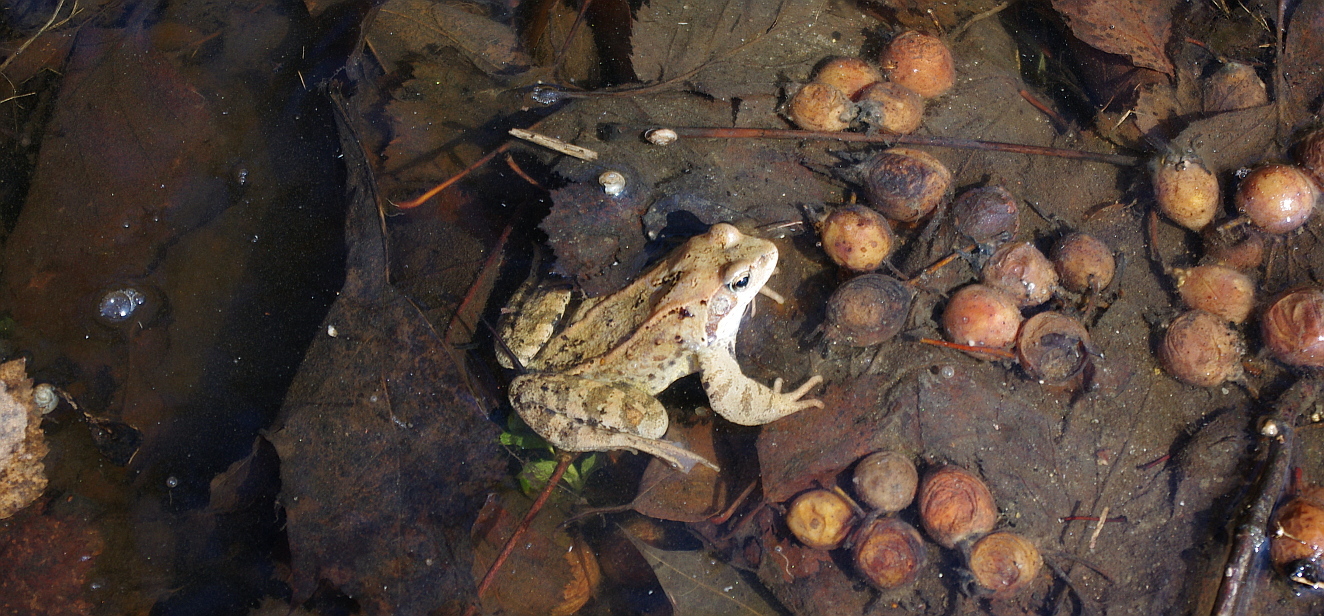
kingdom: Animalia
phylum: Chordata
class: Amphibia
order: Anura
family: Ranidae
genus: Rana
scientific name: Rana temporaria
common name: Common frog
